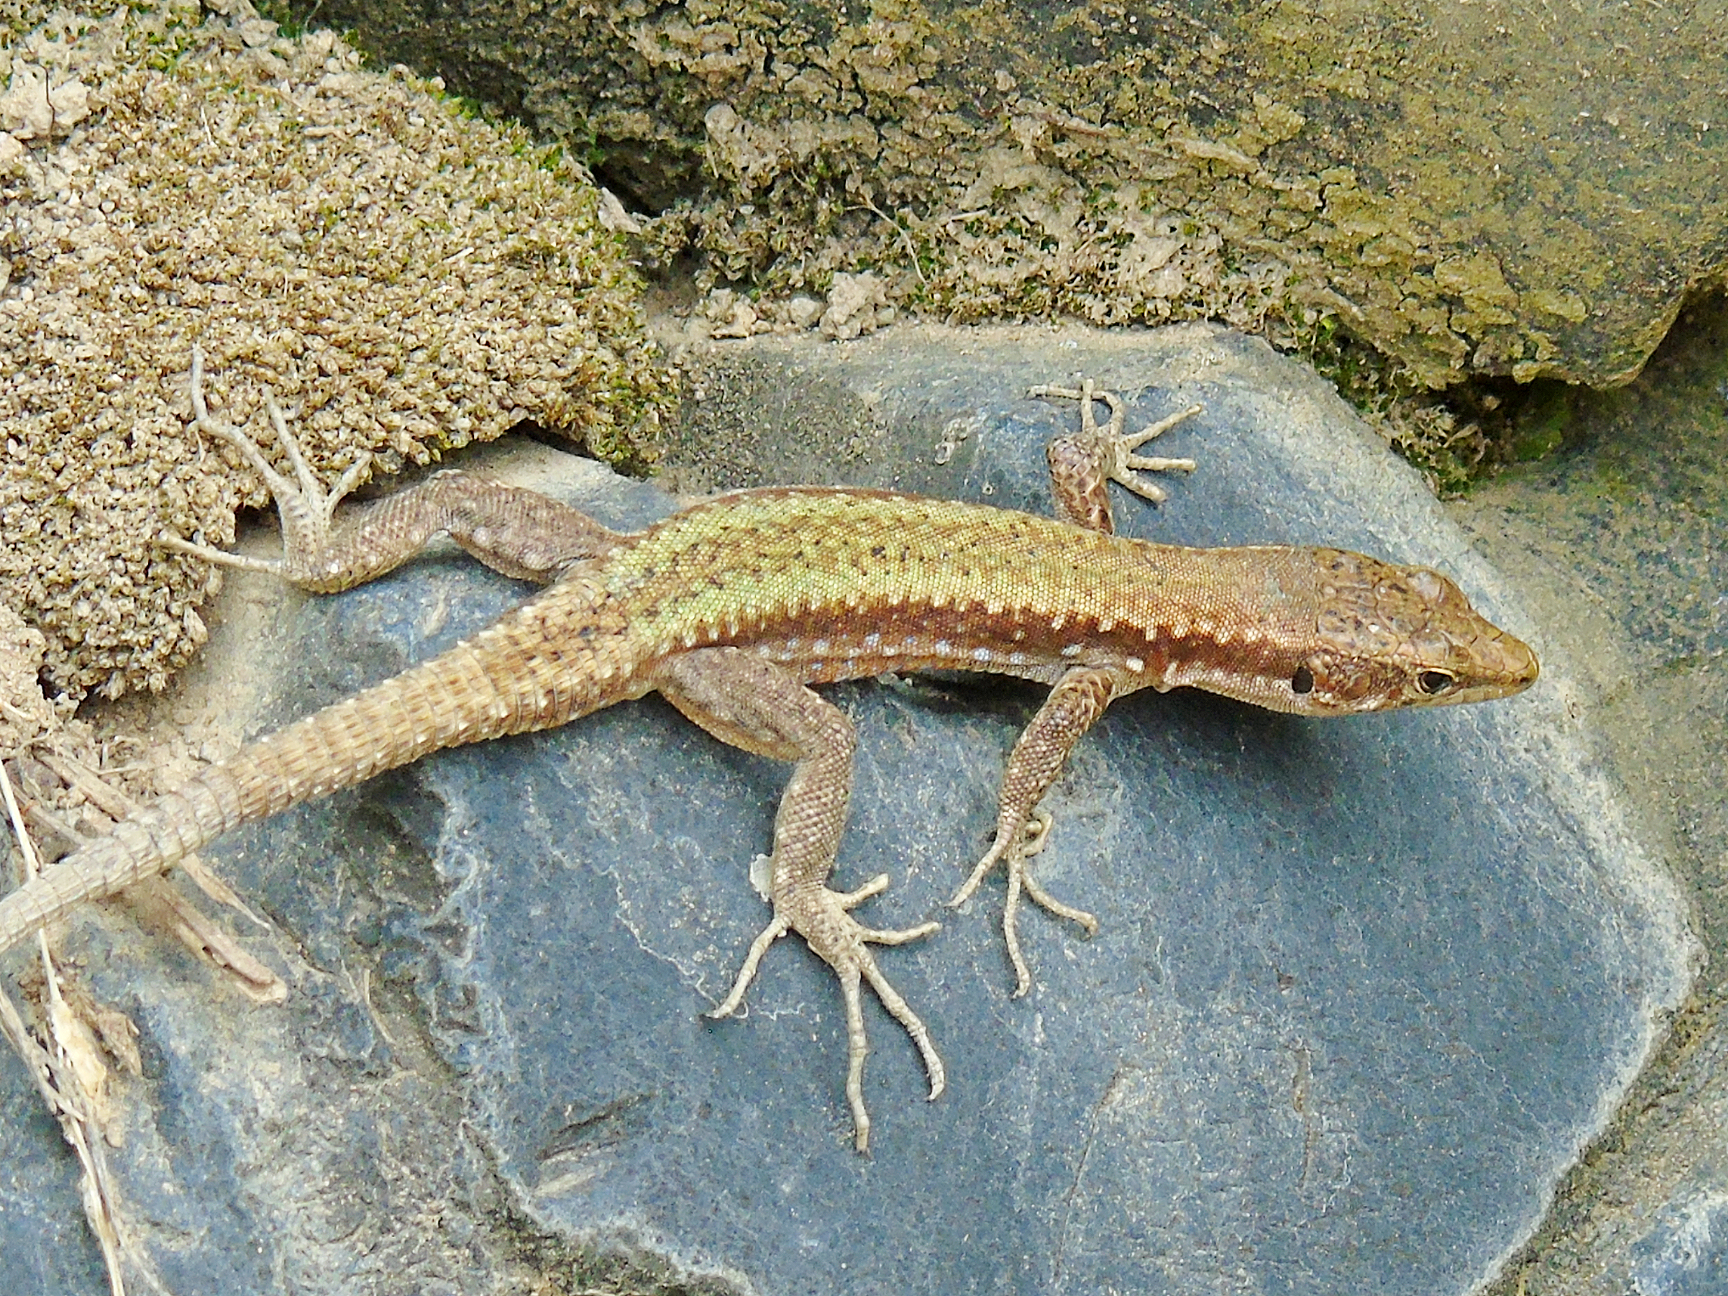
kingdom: Animalia
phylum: Chordata
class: Squamata
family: Lacertidae
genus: Darevskia
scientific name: Darevskia
